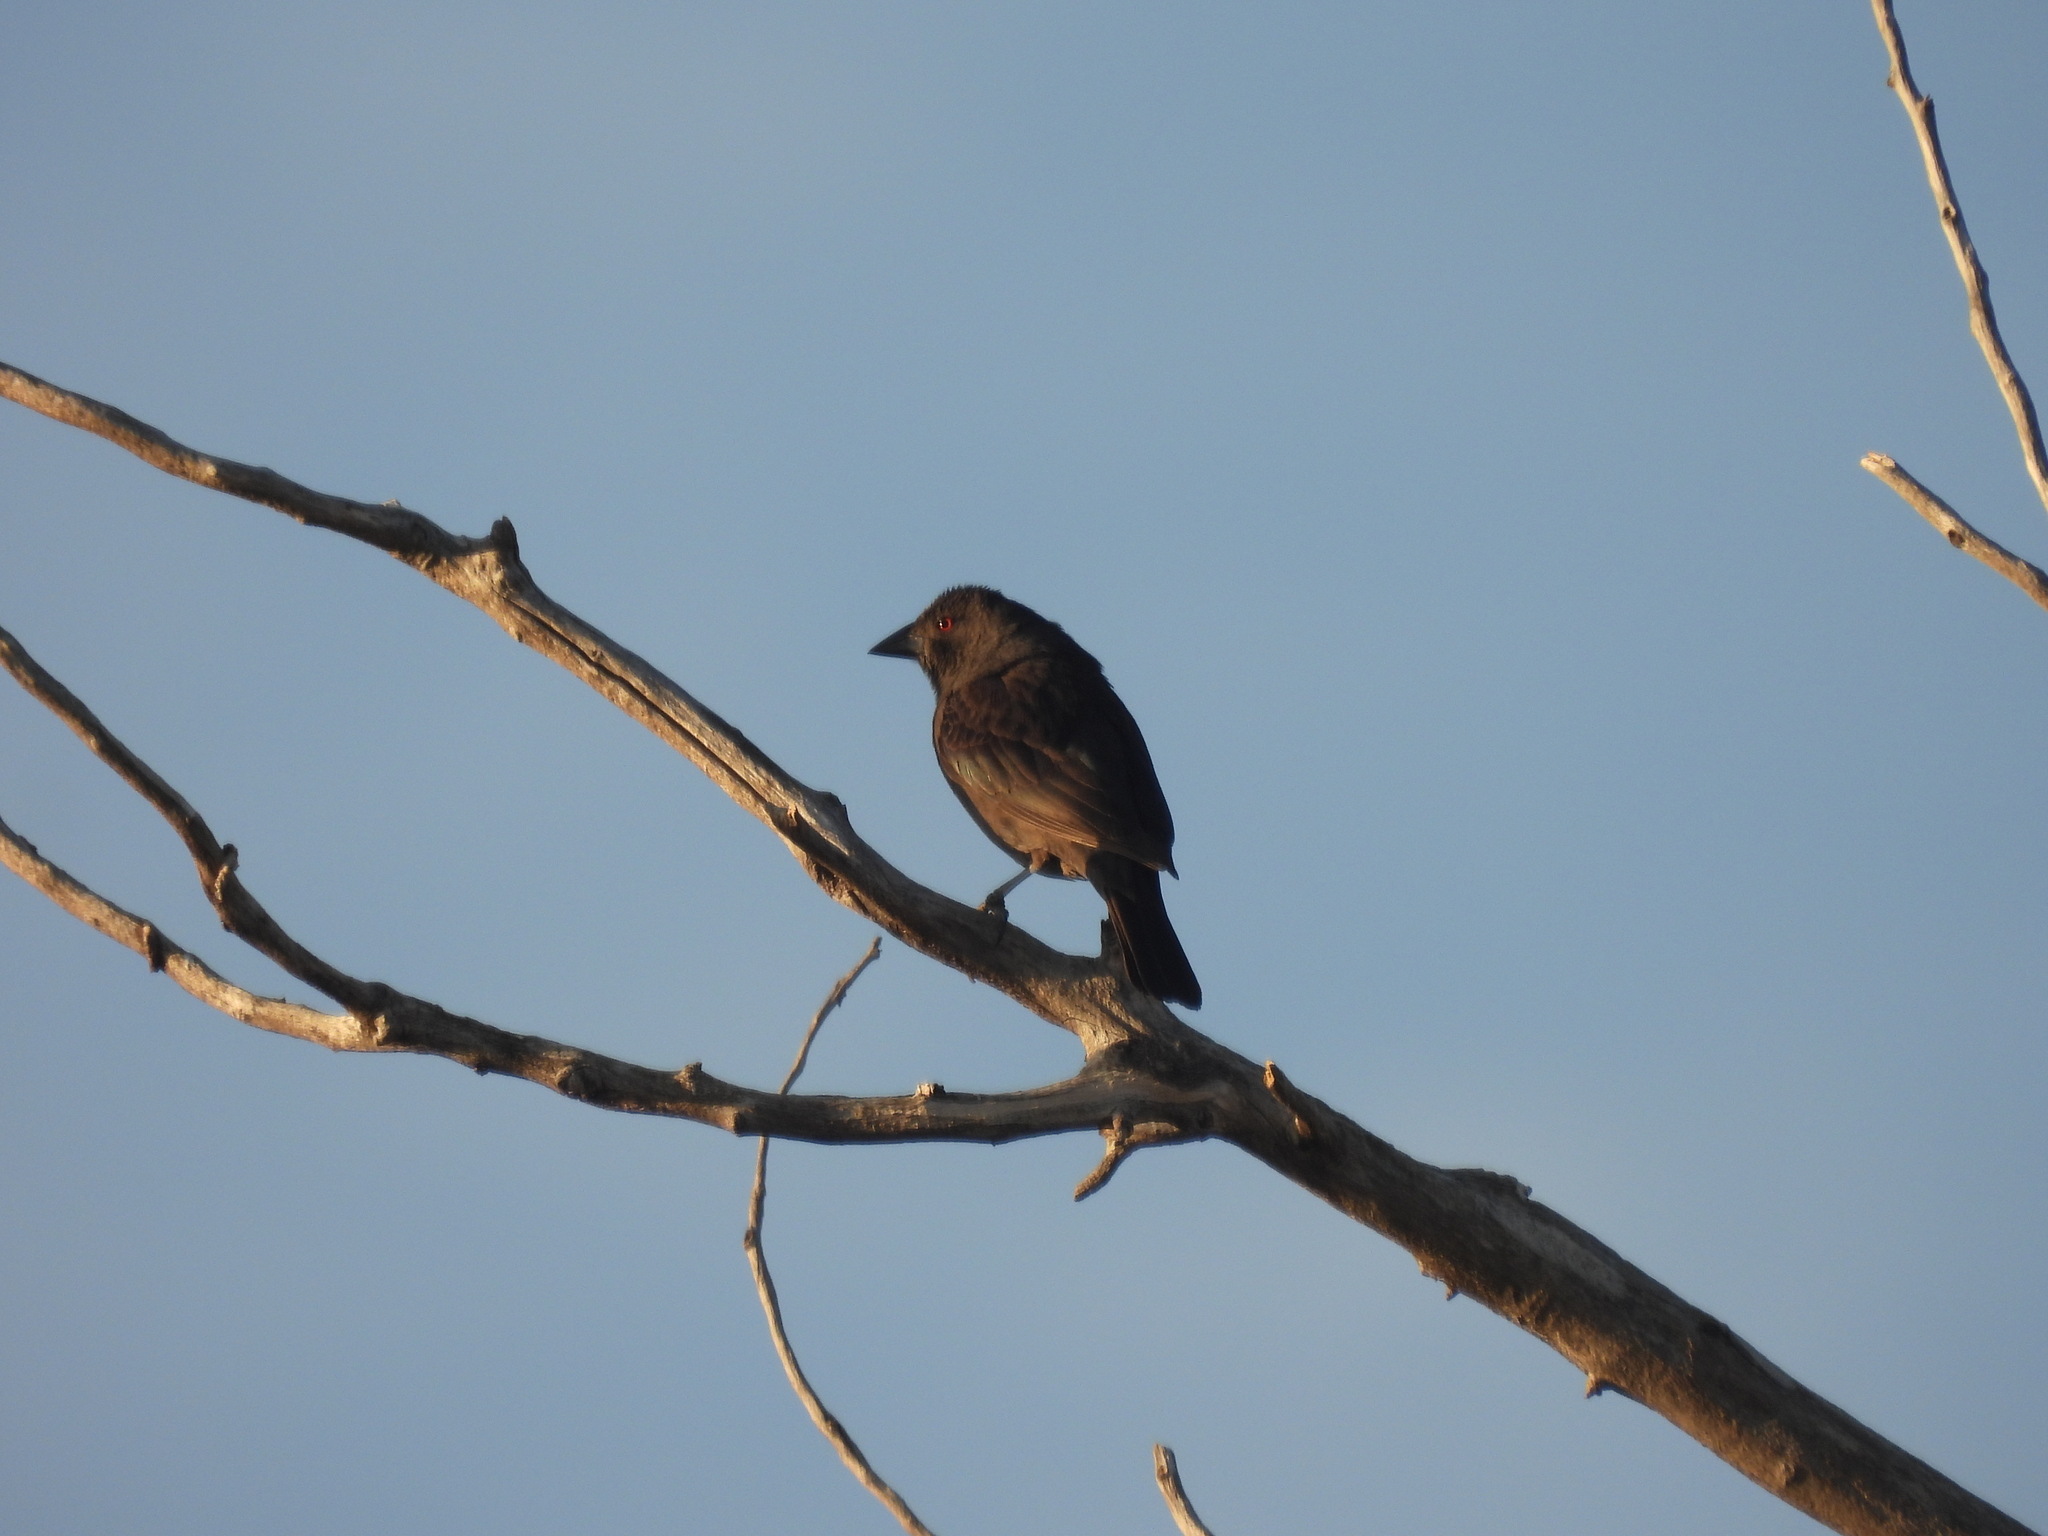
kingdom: Animalia
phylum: Chordata
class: Aves
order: Passeriformes
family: Icteridae
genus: Molothrus
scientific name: Molothrus aeneus
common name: Bronzed cowbird
